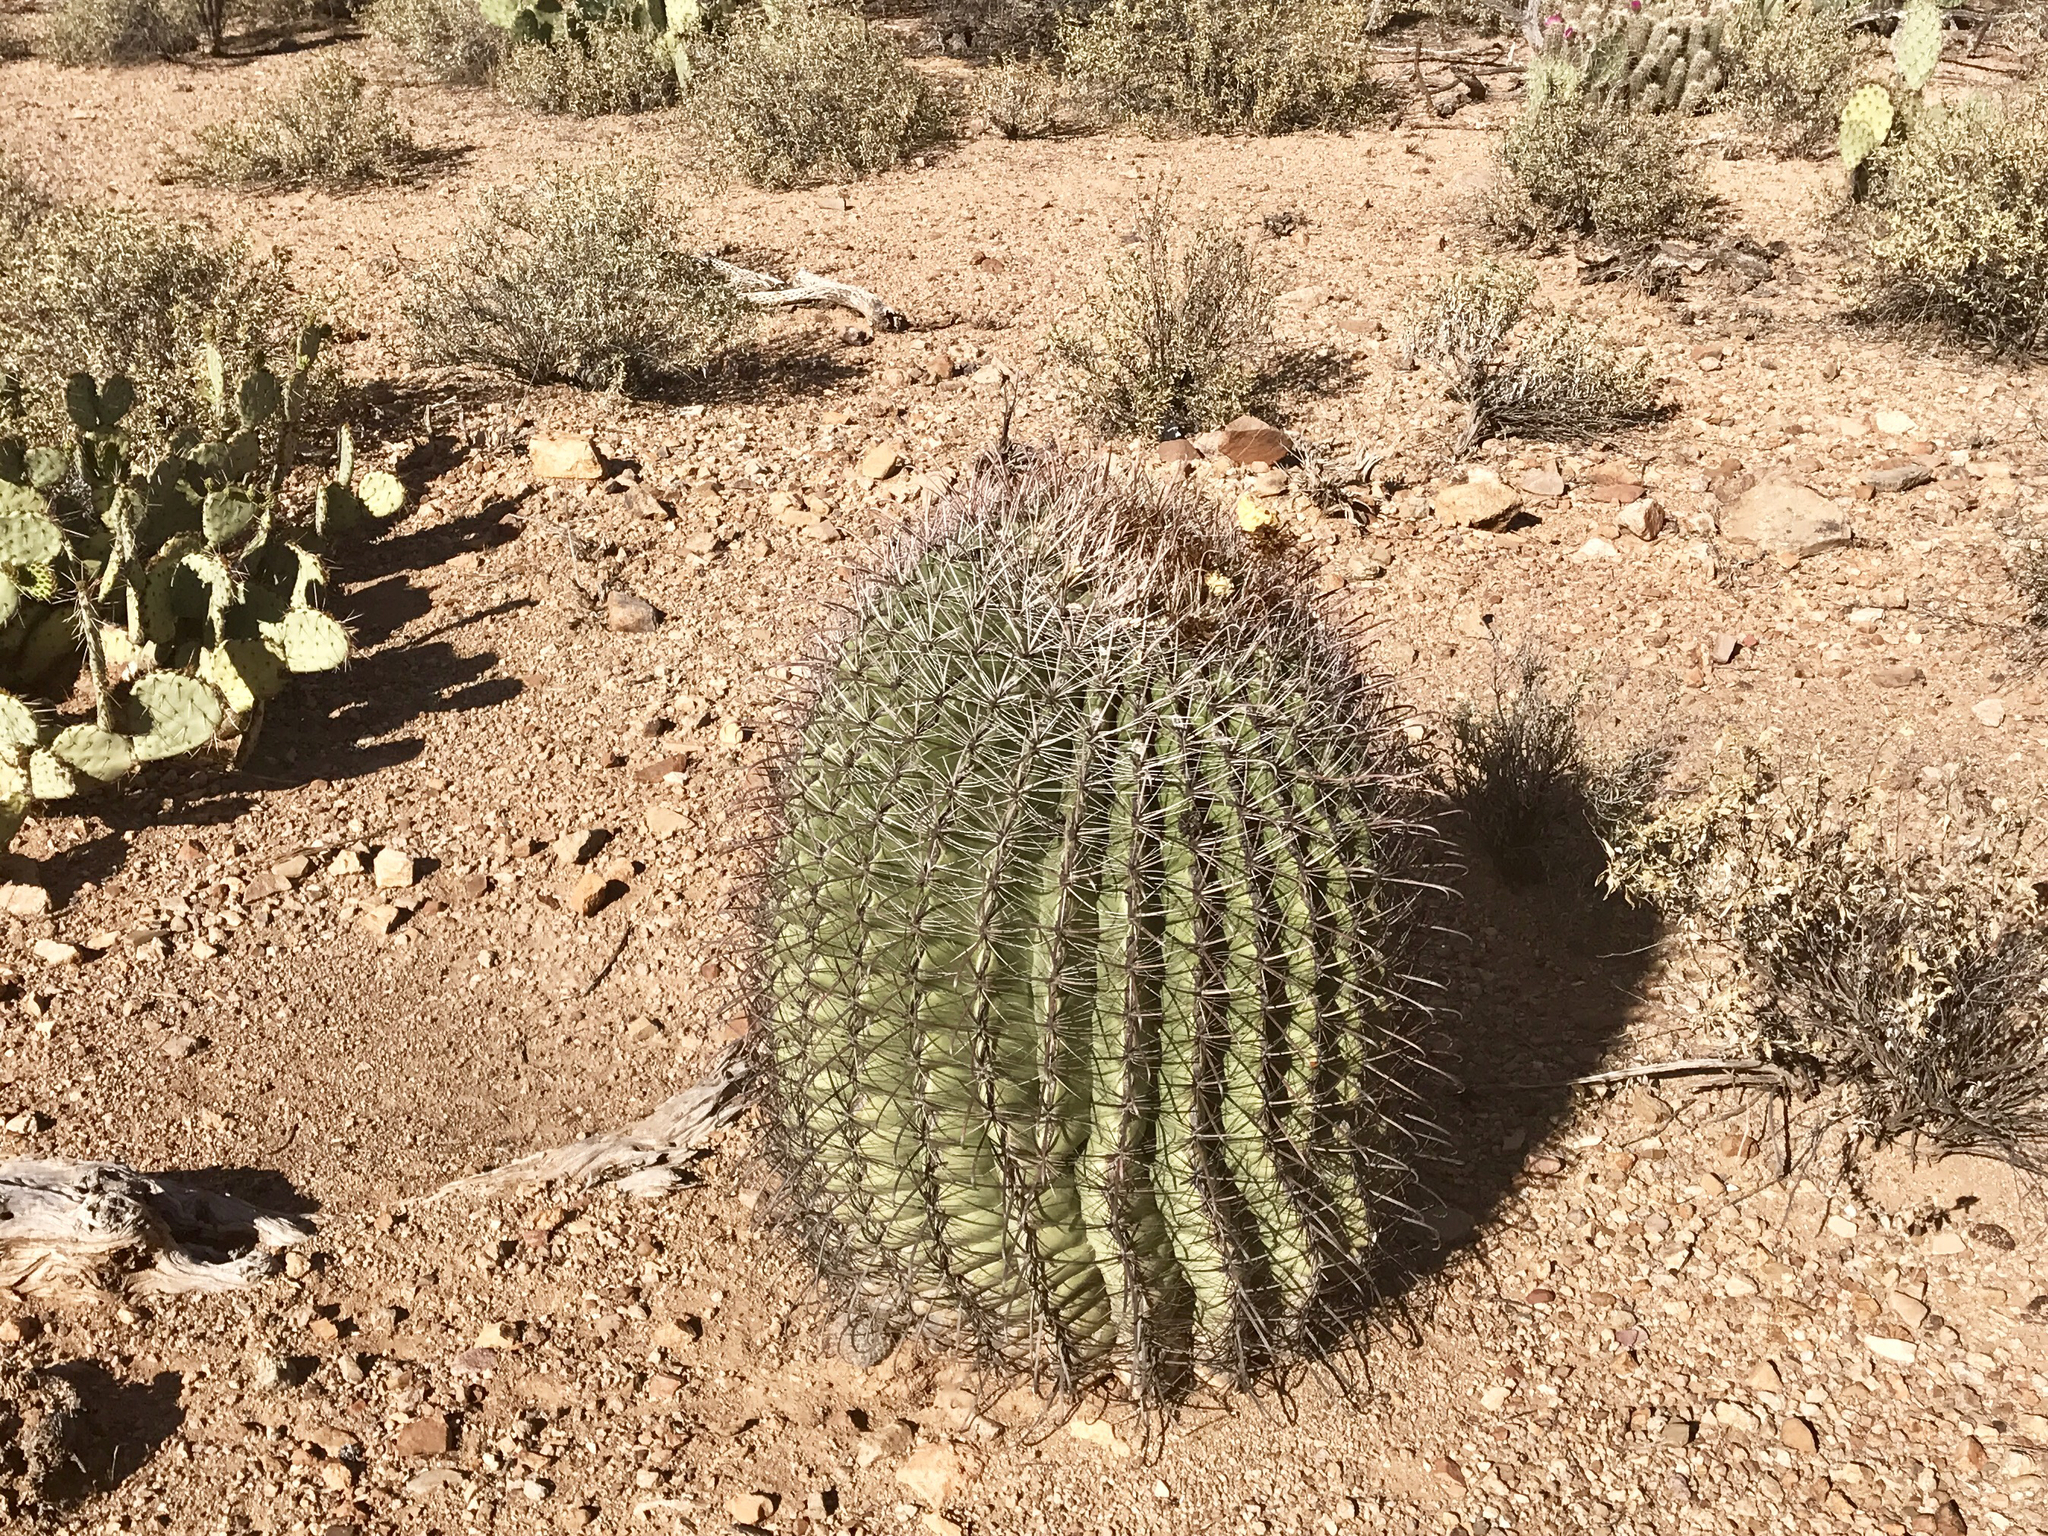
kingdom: Plantae
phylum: Tracheophyta
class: Magnoliopsida
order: Caryophyllales
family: Cactaceae
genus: Ferocactus
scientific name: Ferocactus wislizeni
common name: Candy barrel cactus
